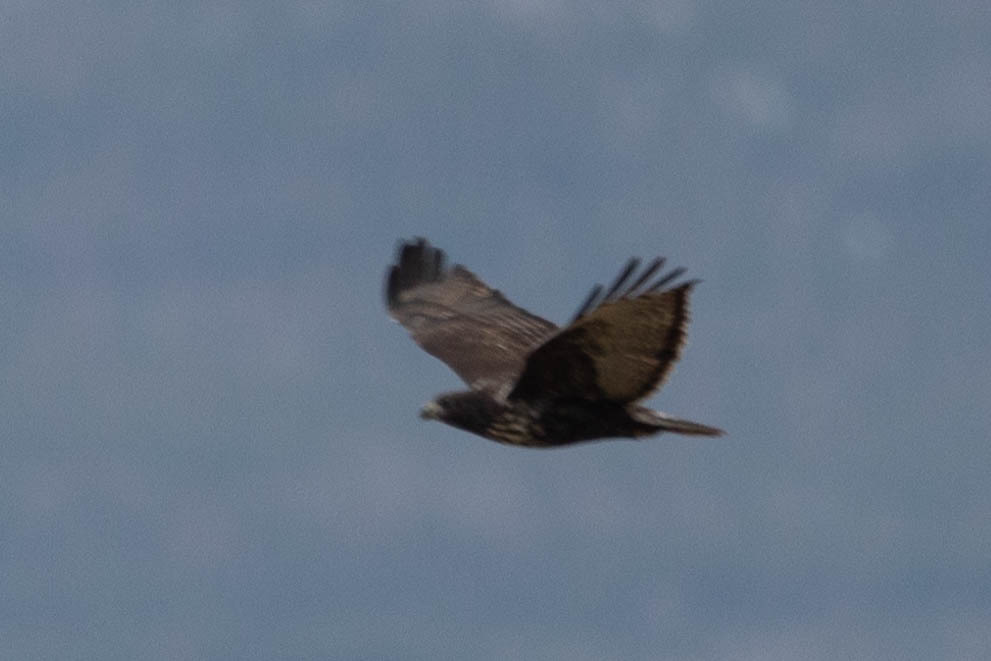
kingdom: Animalia
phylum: Chordata
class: Aves
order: Accipitriformes
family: Accipitridae
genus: Buteo
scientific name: Buteo jamaicensis
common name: Red-tailed hawk
